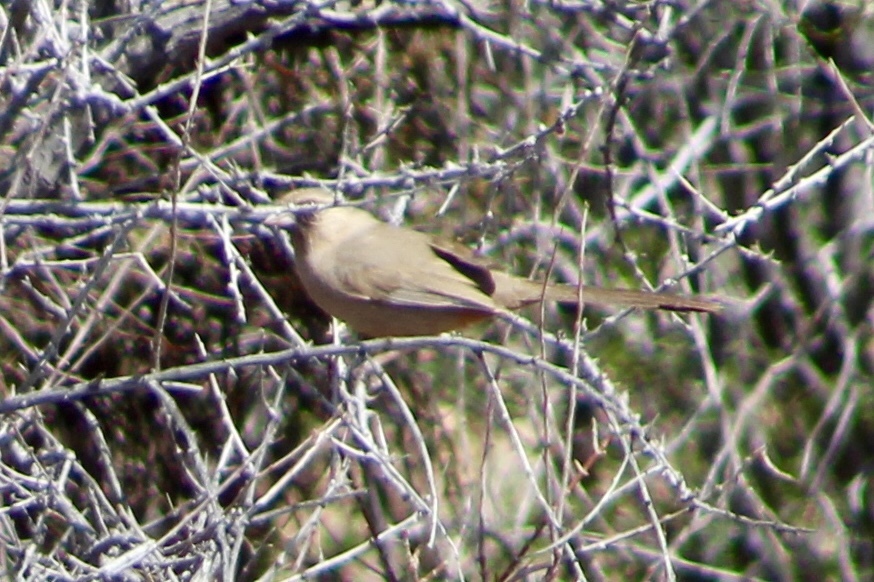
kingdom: Animalia
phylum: Chordata
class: Aves
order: Passeriformes
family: Passerellidae
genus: Melozone
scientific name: Melozone aberti
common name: Abert's towhee
